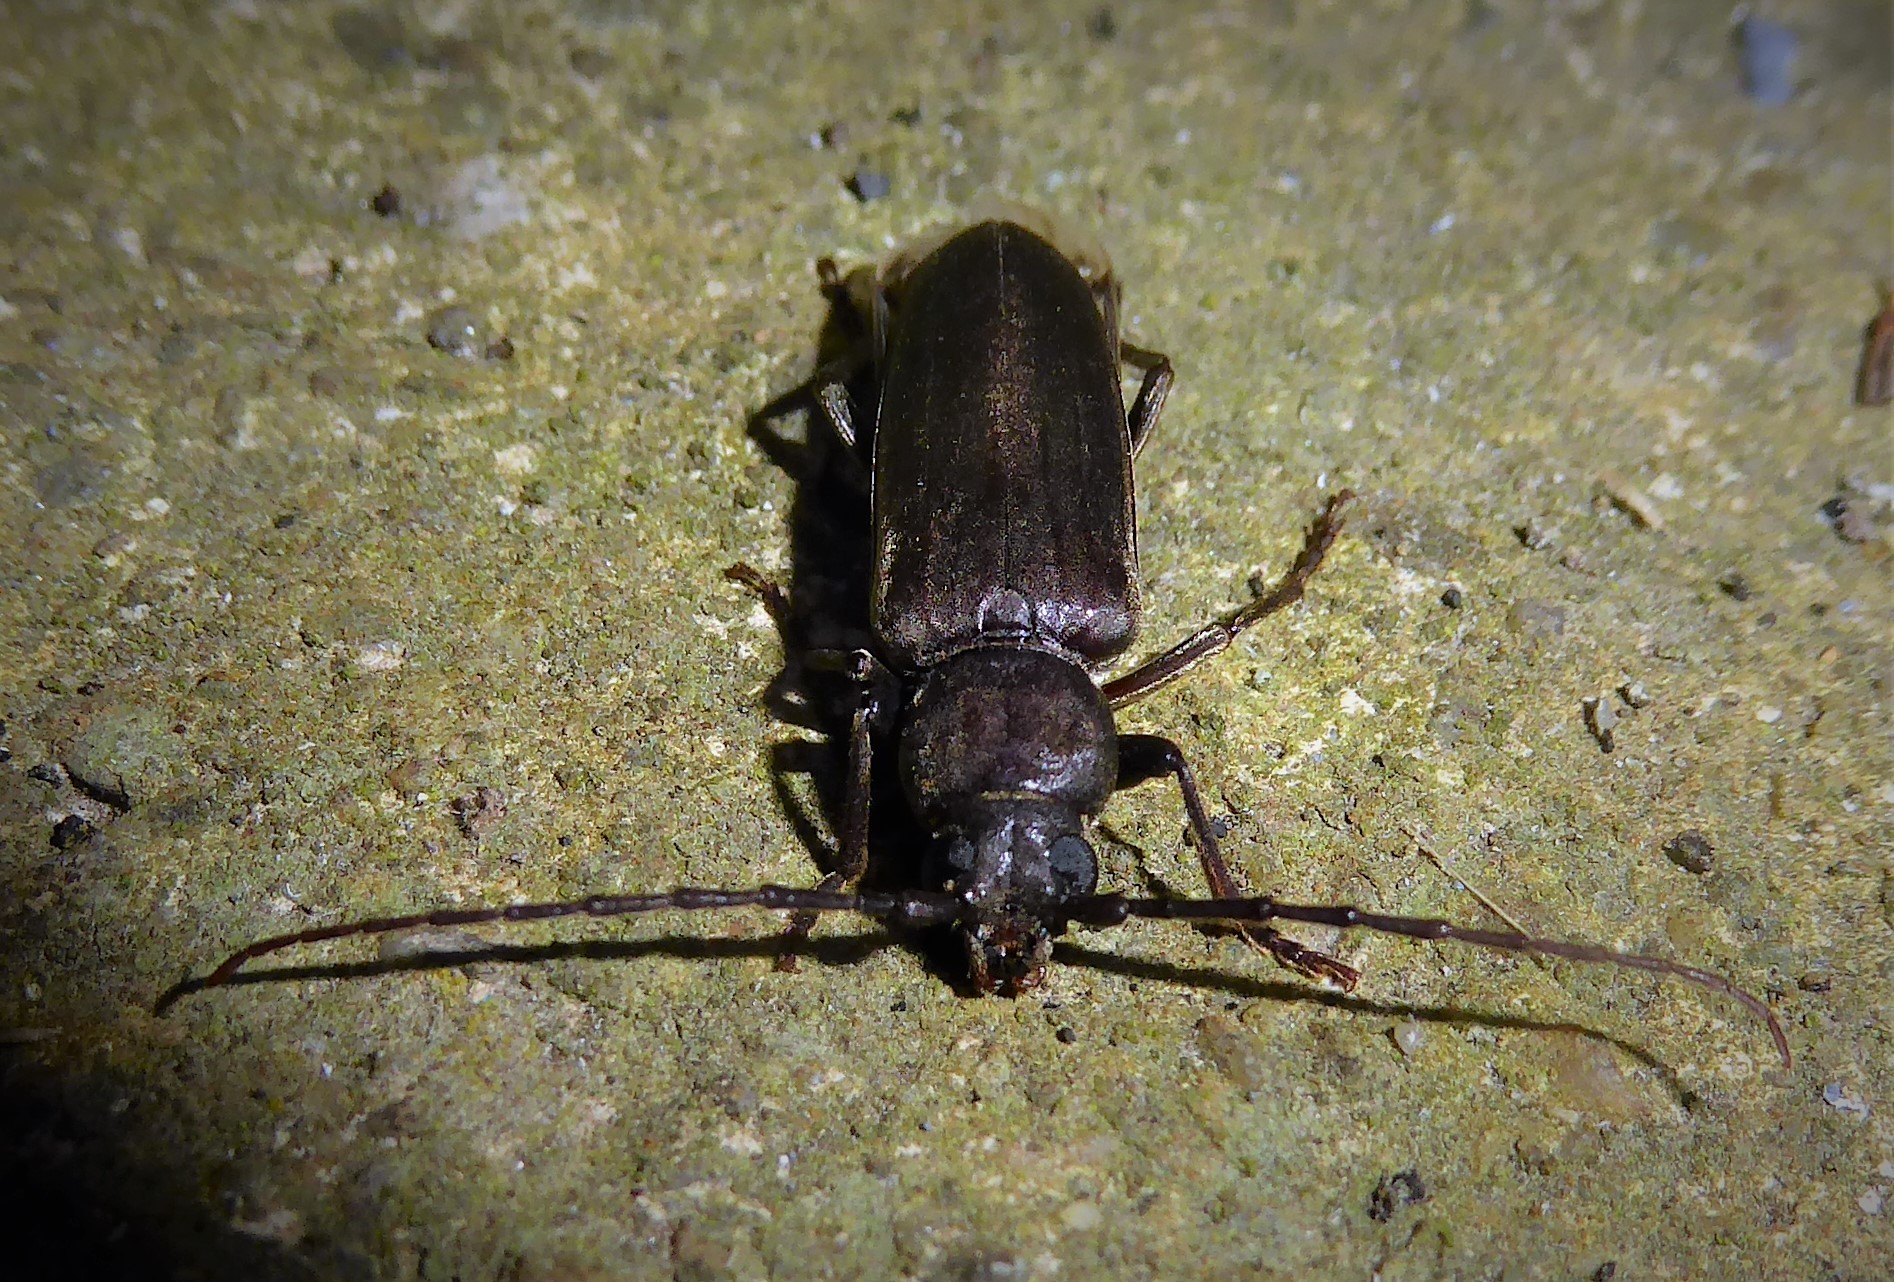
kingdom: Animalia
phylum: Arthropoda
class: Insecta
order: Coleoptera
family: Cerambycidae
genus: Arhopalus
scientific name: Arhopalus ferus
